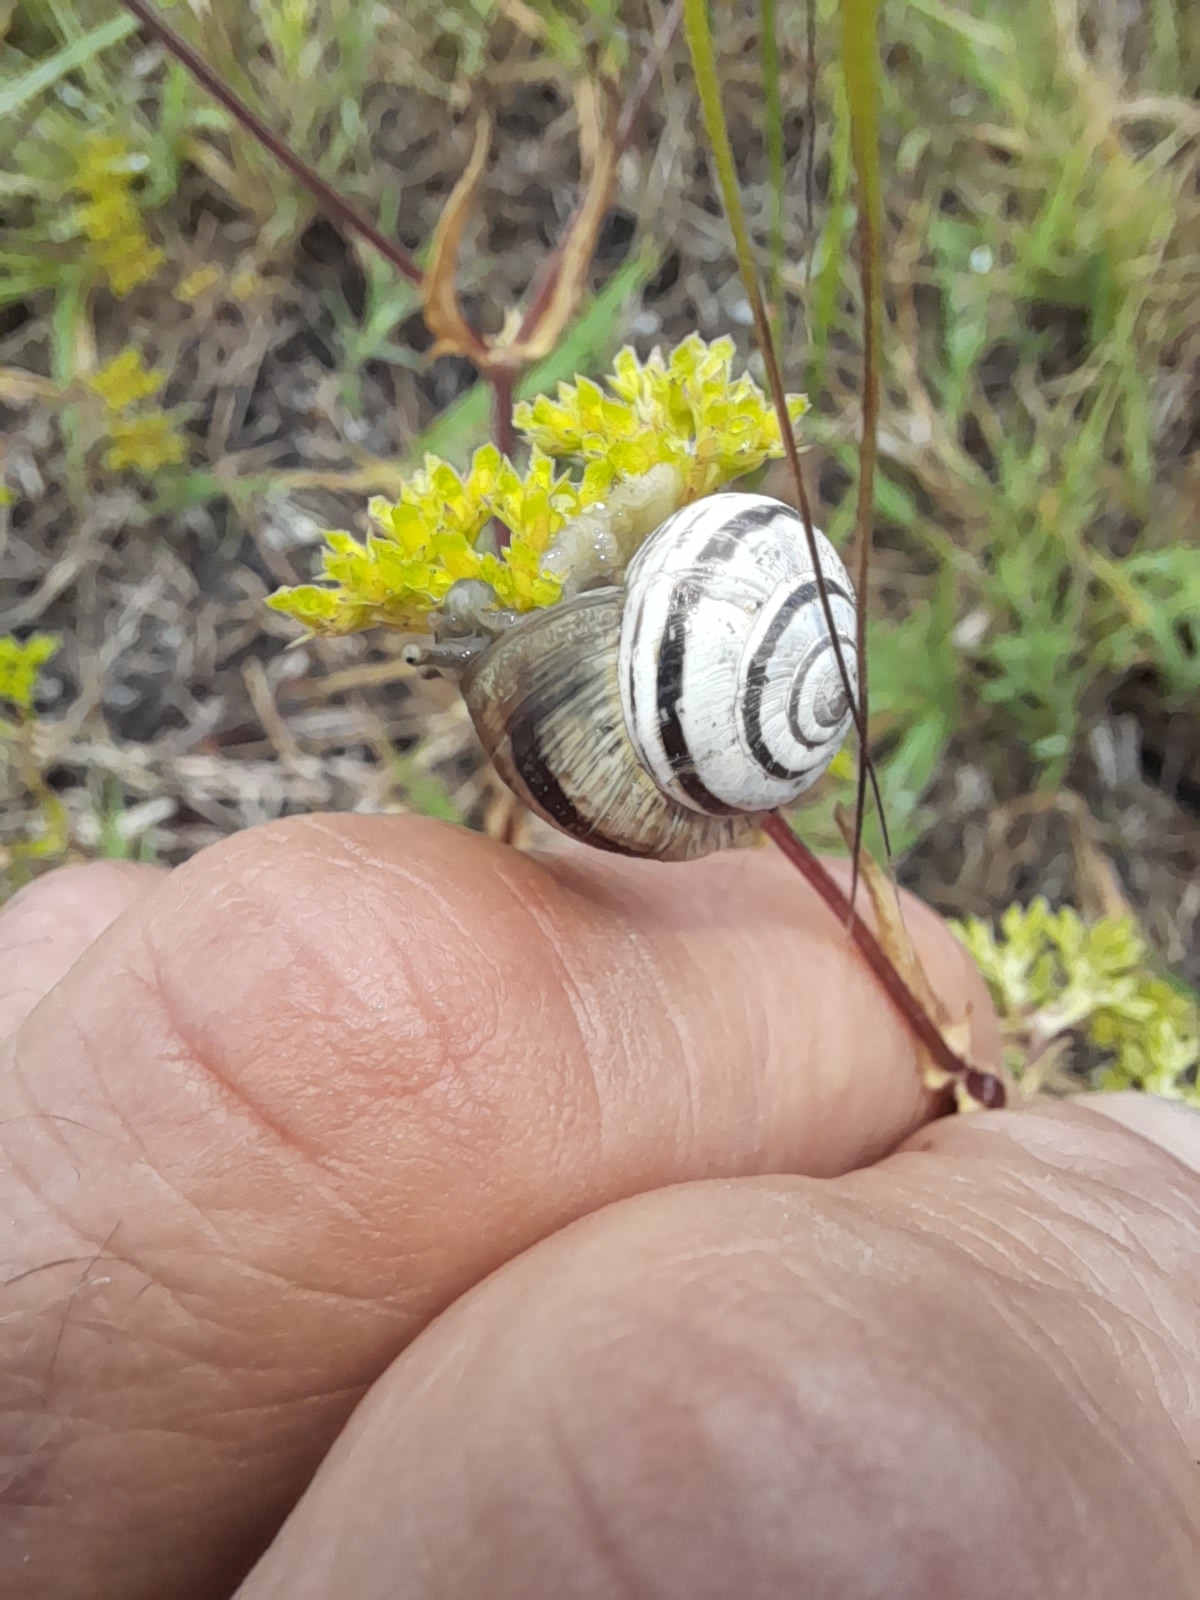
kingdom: Animalia
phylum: Mollusca
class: Gastropoda
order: Stylommatophora
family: Geomitridae
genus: Cernuella
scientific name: Cernuella virgata
